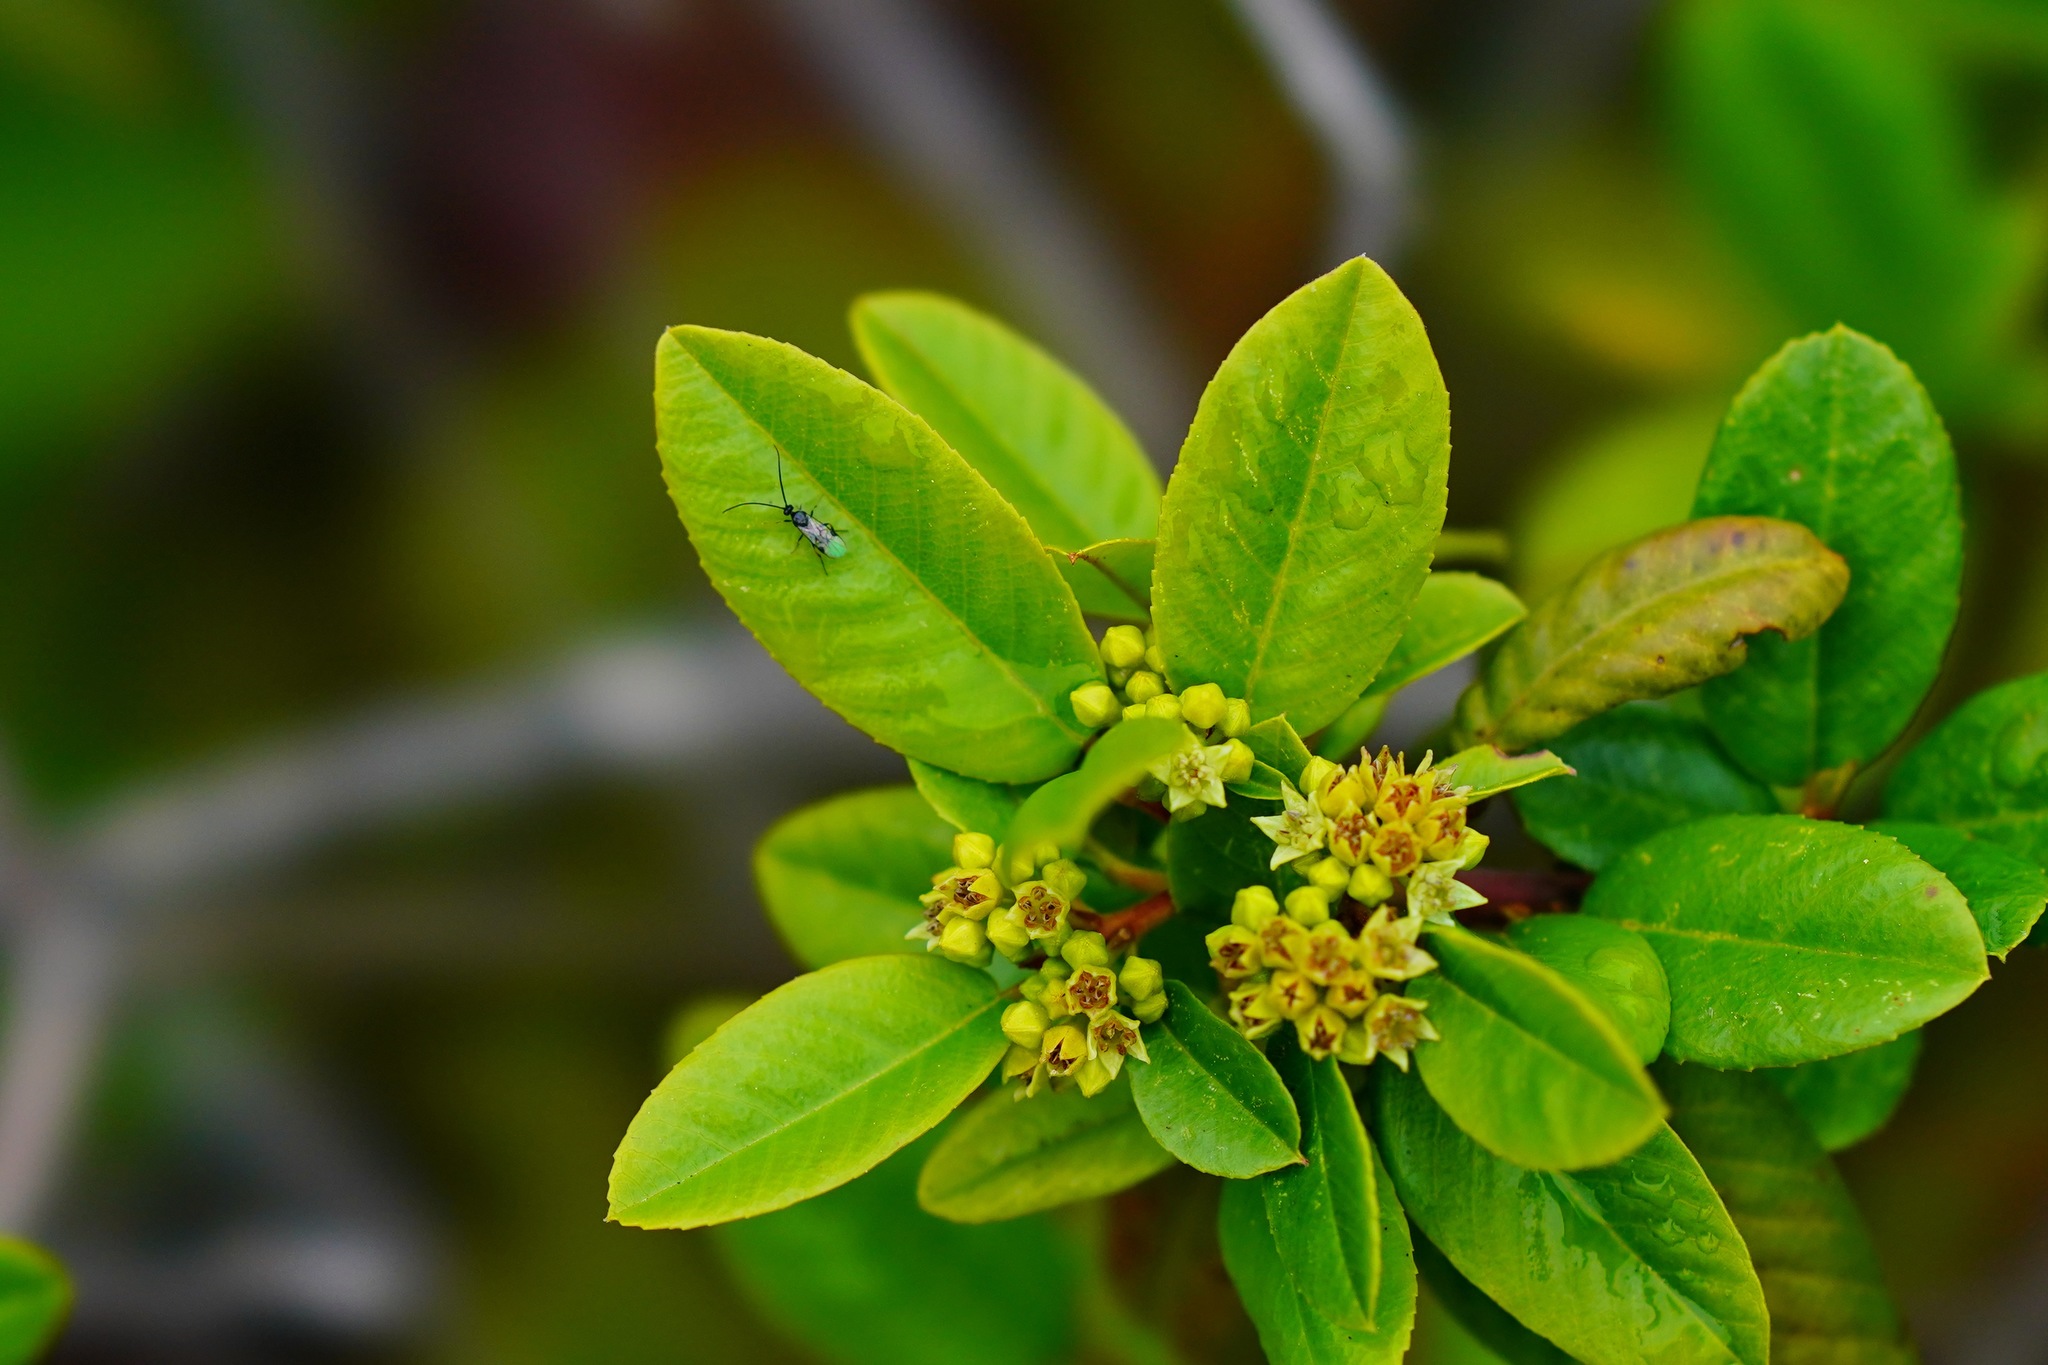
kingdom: Plantae
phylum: Tracheophyta
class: Magnoliopsida
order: Rosales
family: Rhamnaceae
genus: Frangula
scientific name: Frangula californica
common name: California buckthorn
